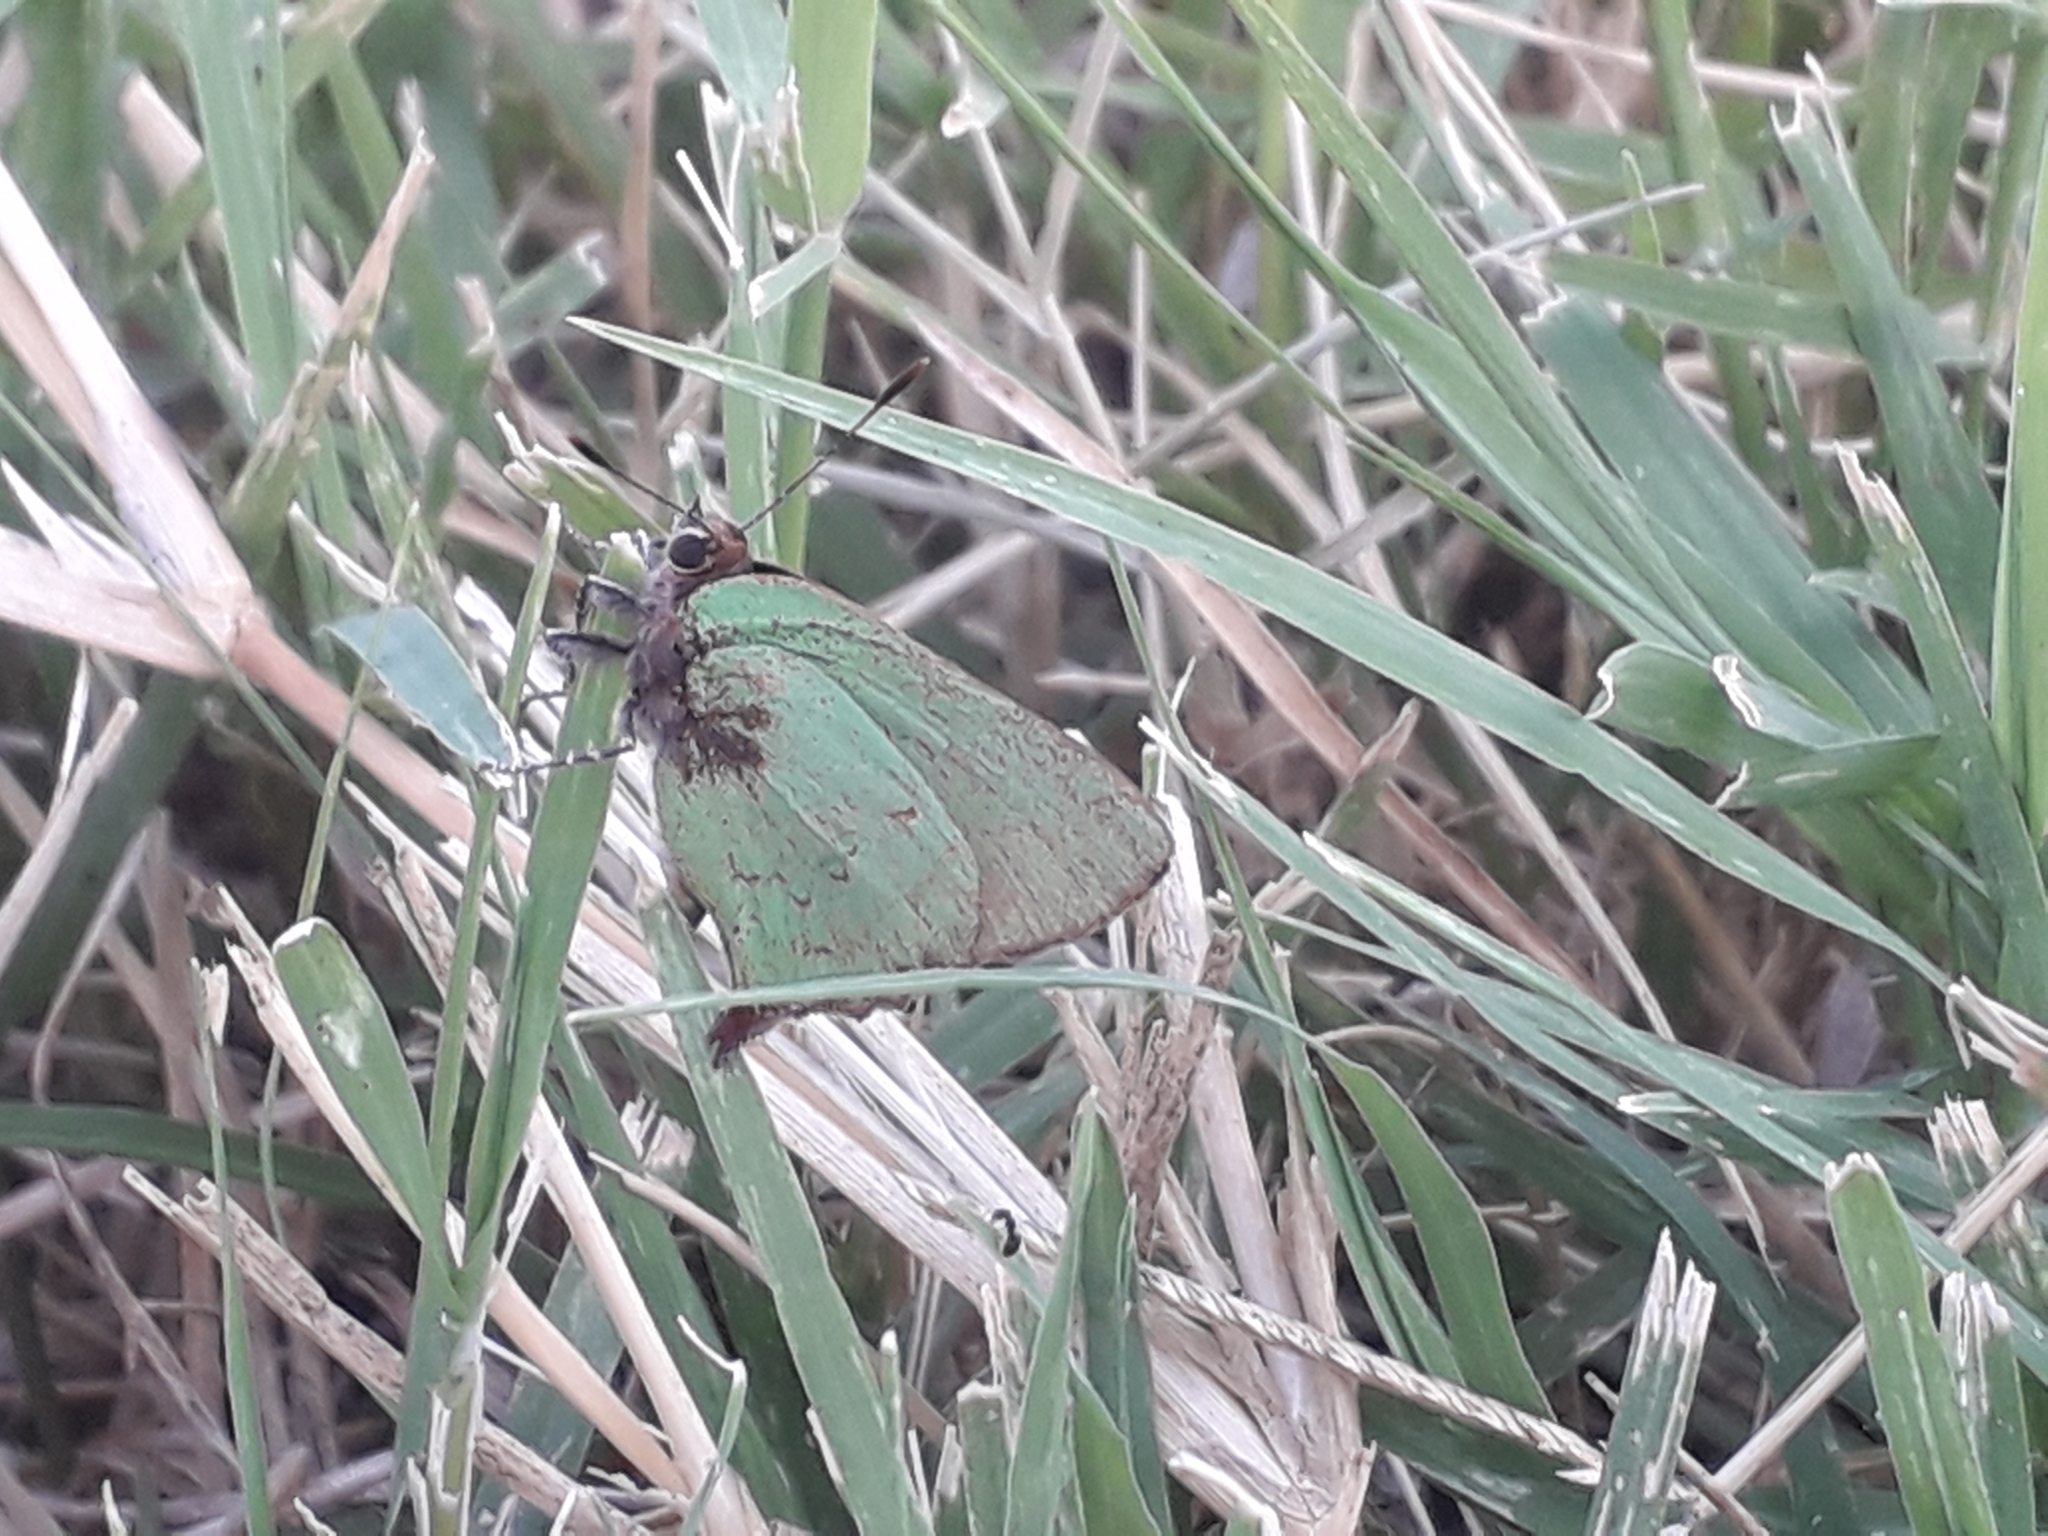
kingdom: Animalia
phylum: Arthropoda
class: Insecta
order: Lepidoptera
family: Lycaenidae
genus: Cyanophrys
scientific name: Cyanophrys
